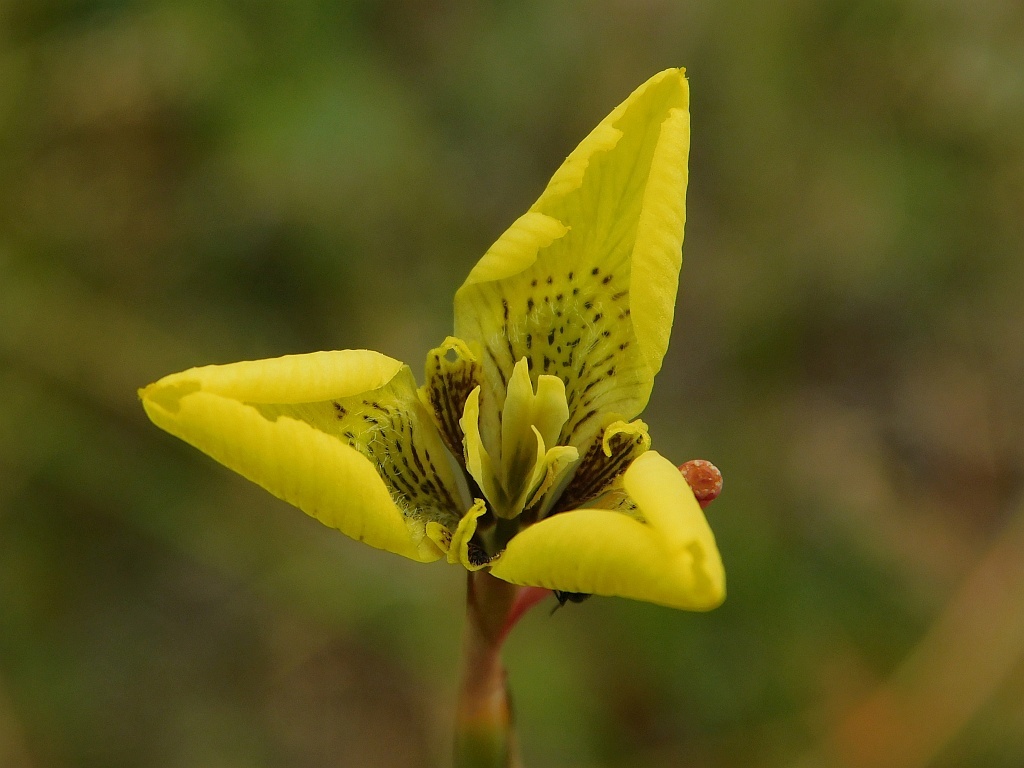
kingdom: Plantae
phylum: Tracheophyta
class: Liliopsida
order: Asparagales
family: Iridaceae
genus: Moraea
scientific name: Moraea bellendenii
